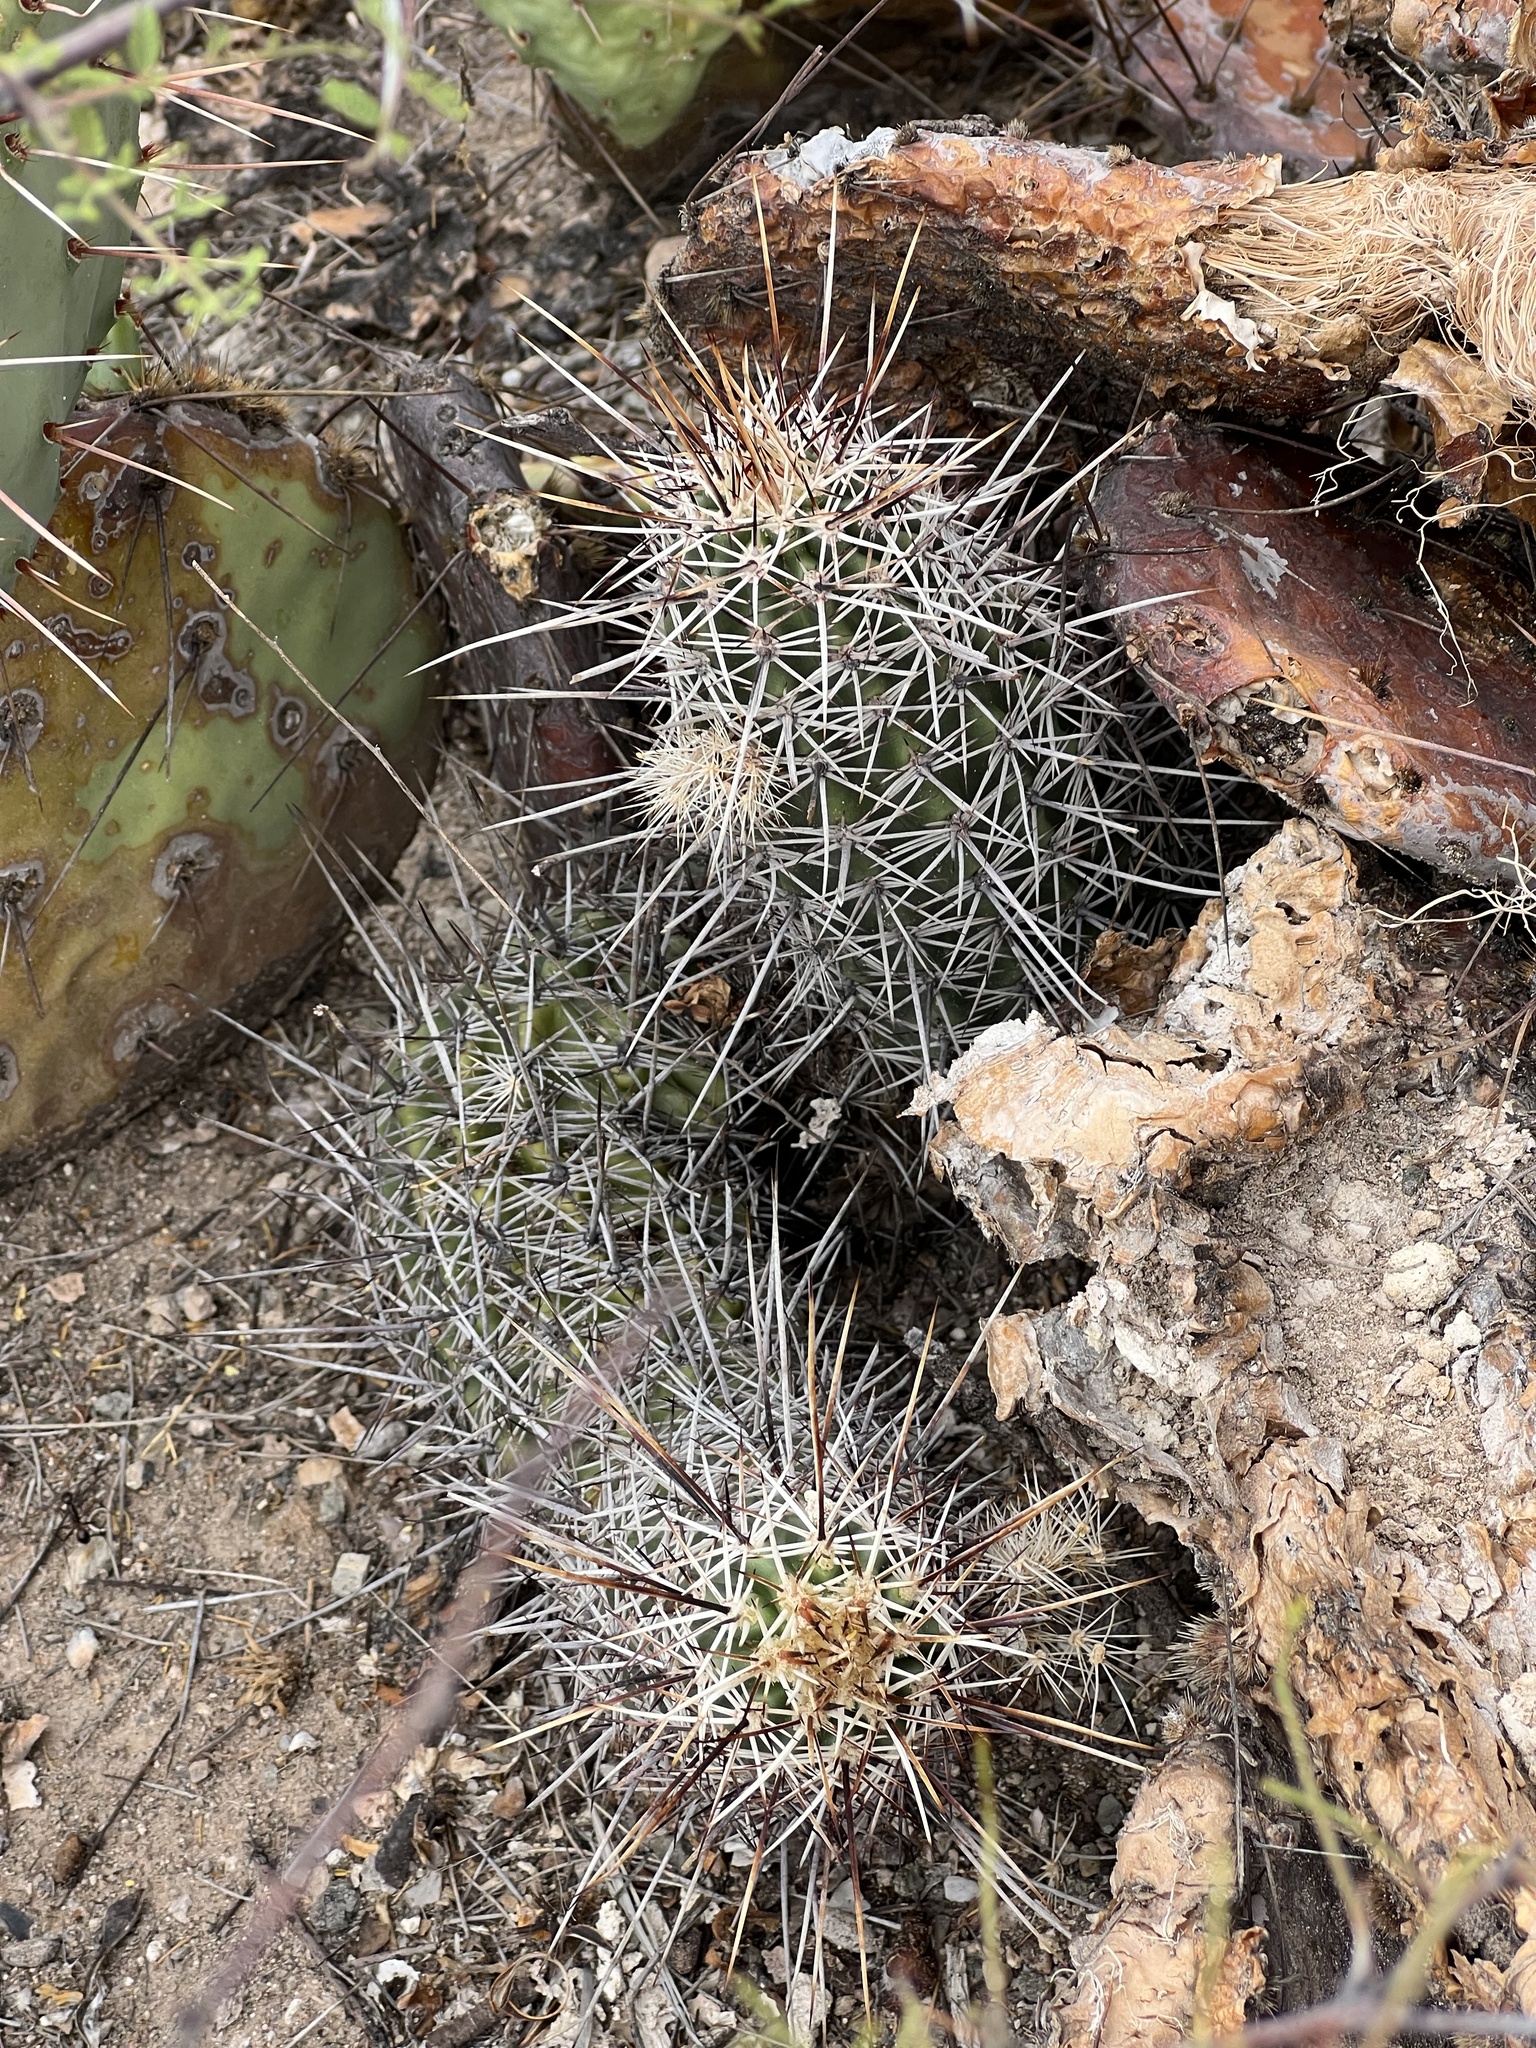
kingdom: Plantae
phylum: Tracheophyta
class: Magnoliopsida
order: Caryophyllales
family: Cactaceae
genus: Echinocereus
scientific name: Echinocereus fasciculatus
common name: Bundle hedgehog
